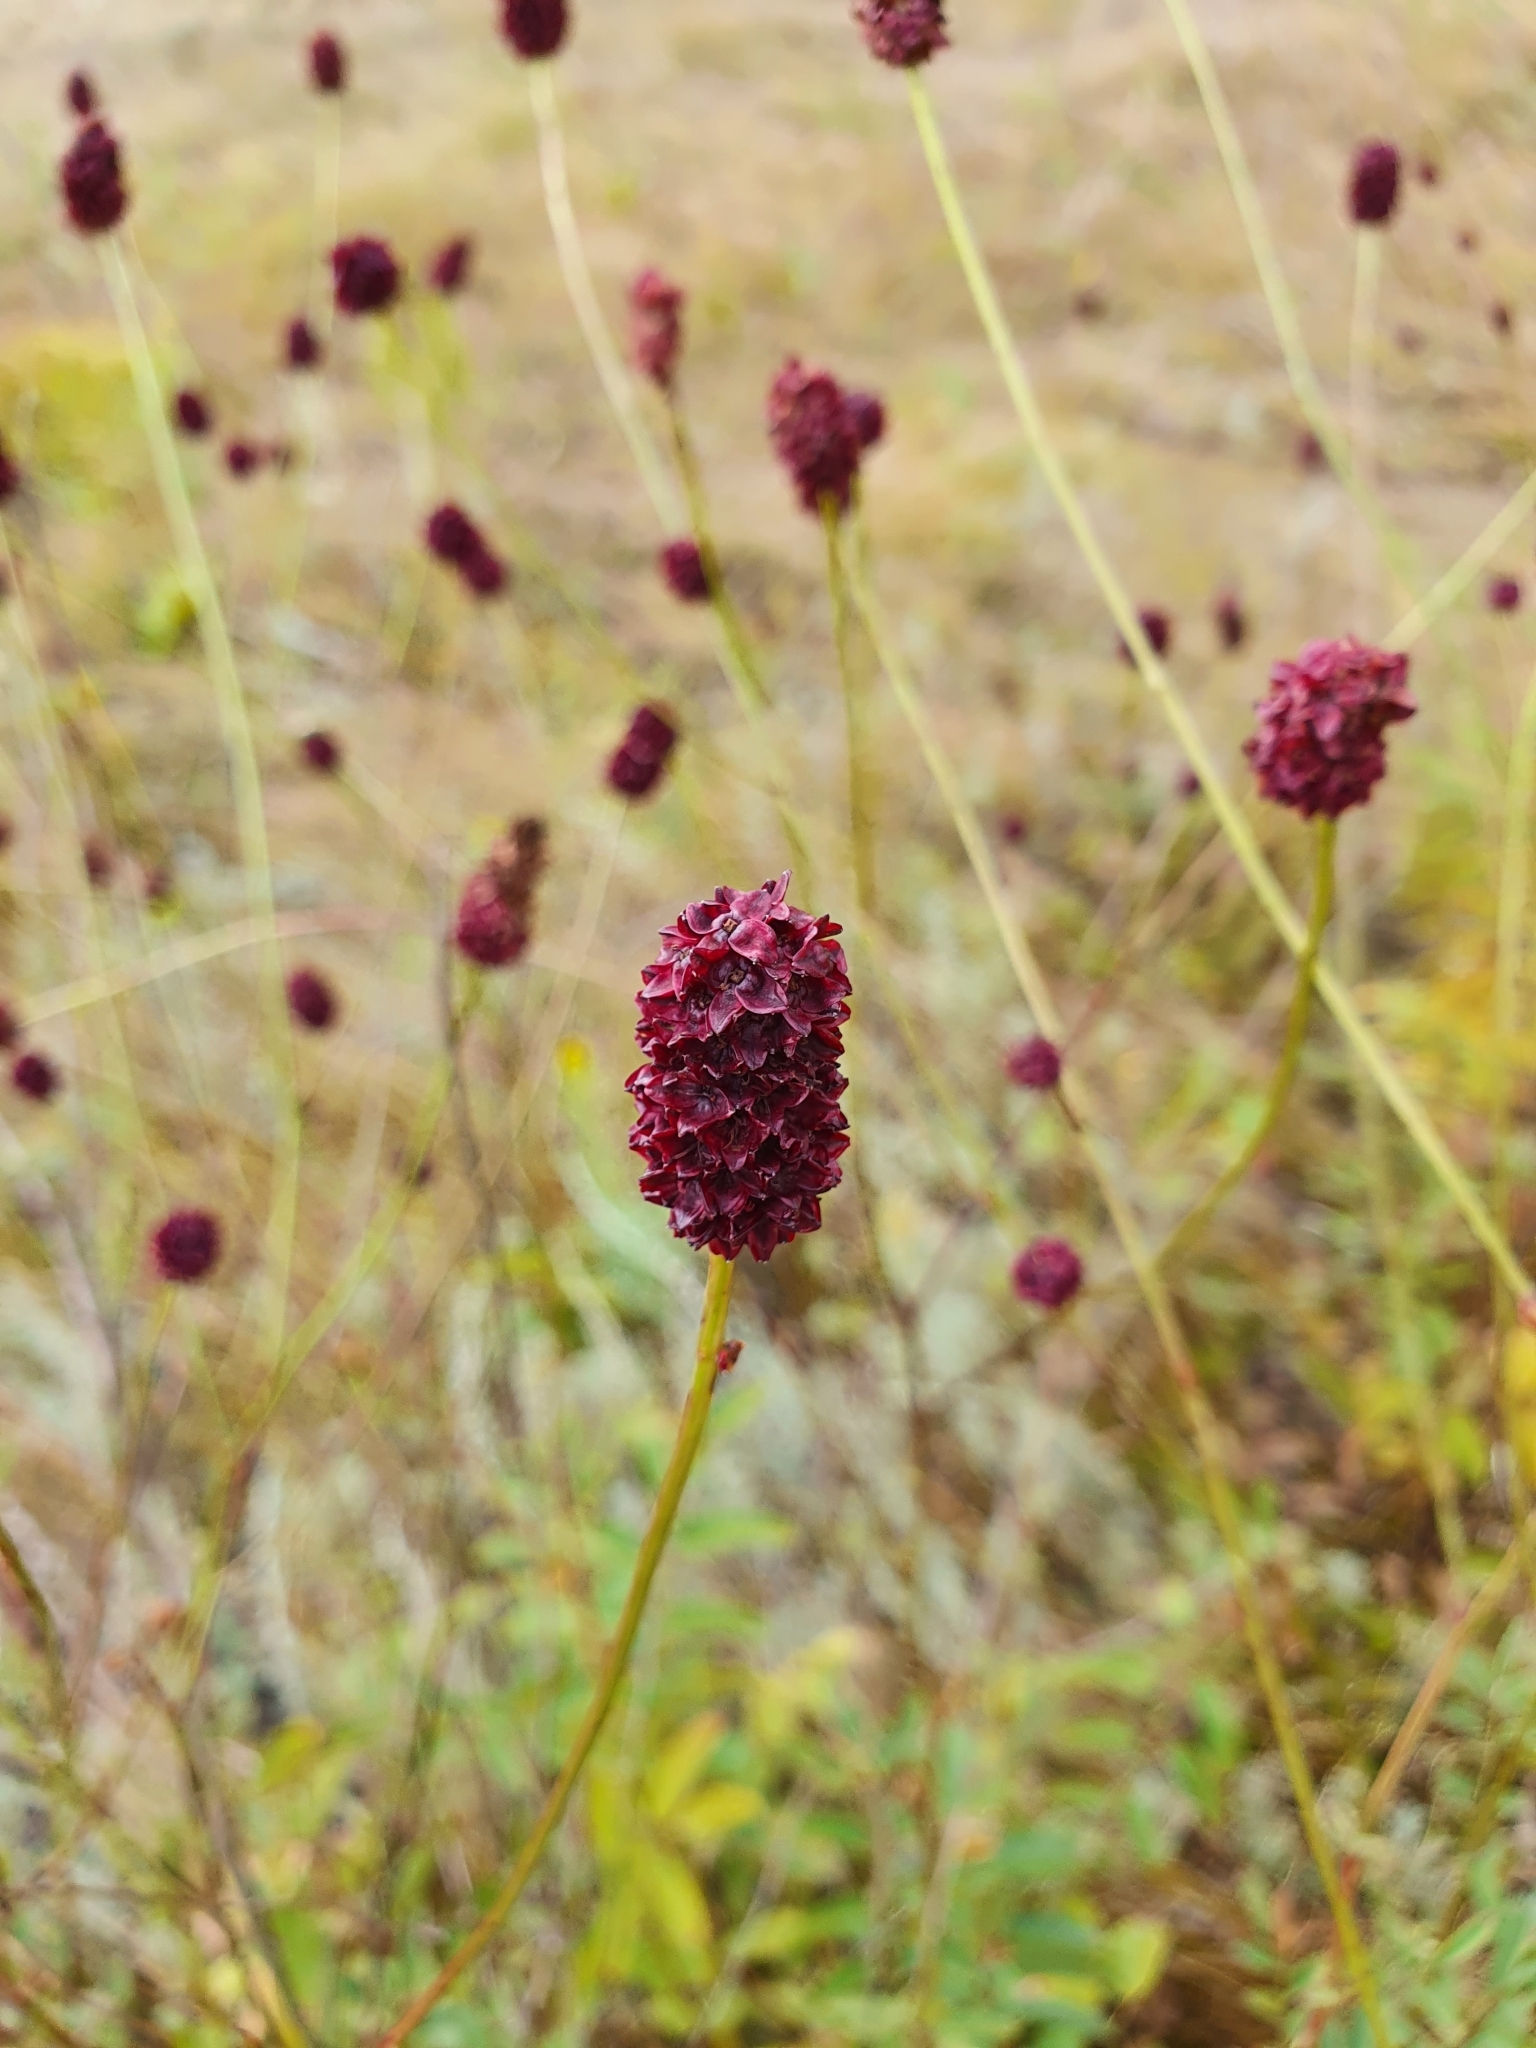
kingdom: Plantae
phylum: Tracheophyta
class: Magnoliopsida
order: Rosales
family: Rosaceae
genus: Sanguisorba
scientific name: Sanguisorba officinalis
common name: Great burnet
